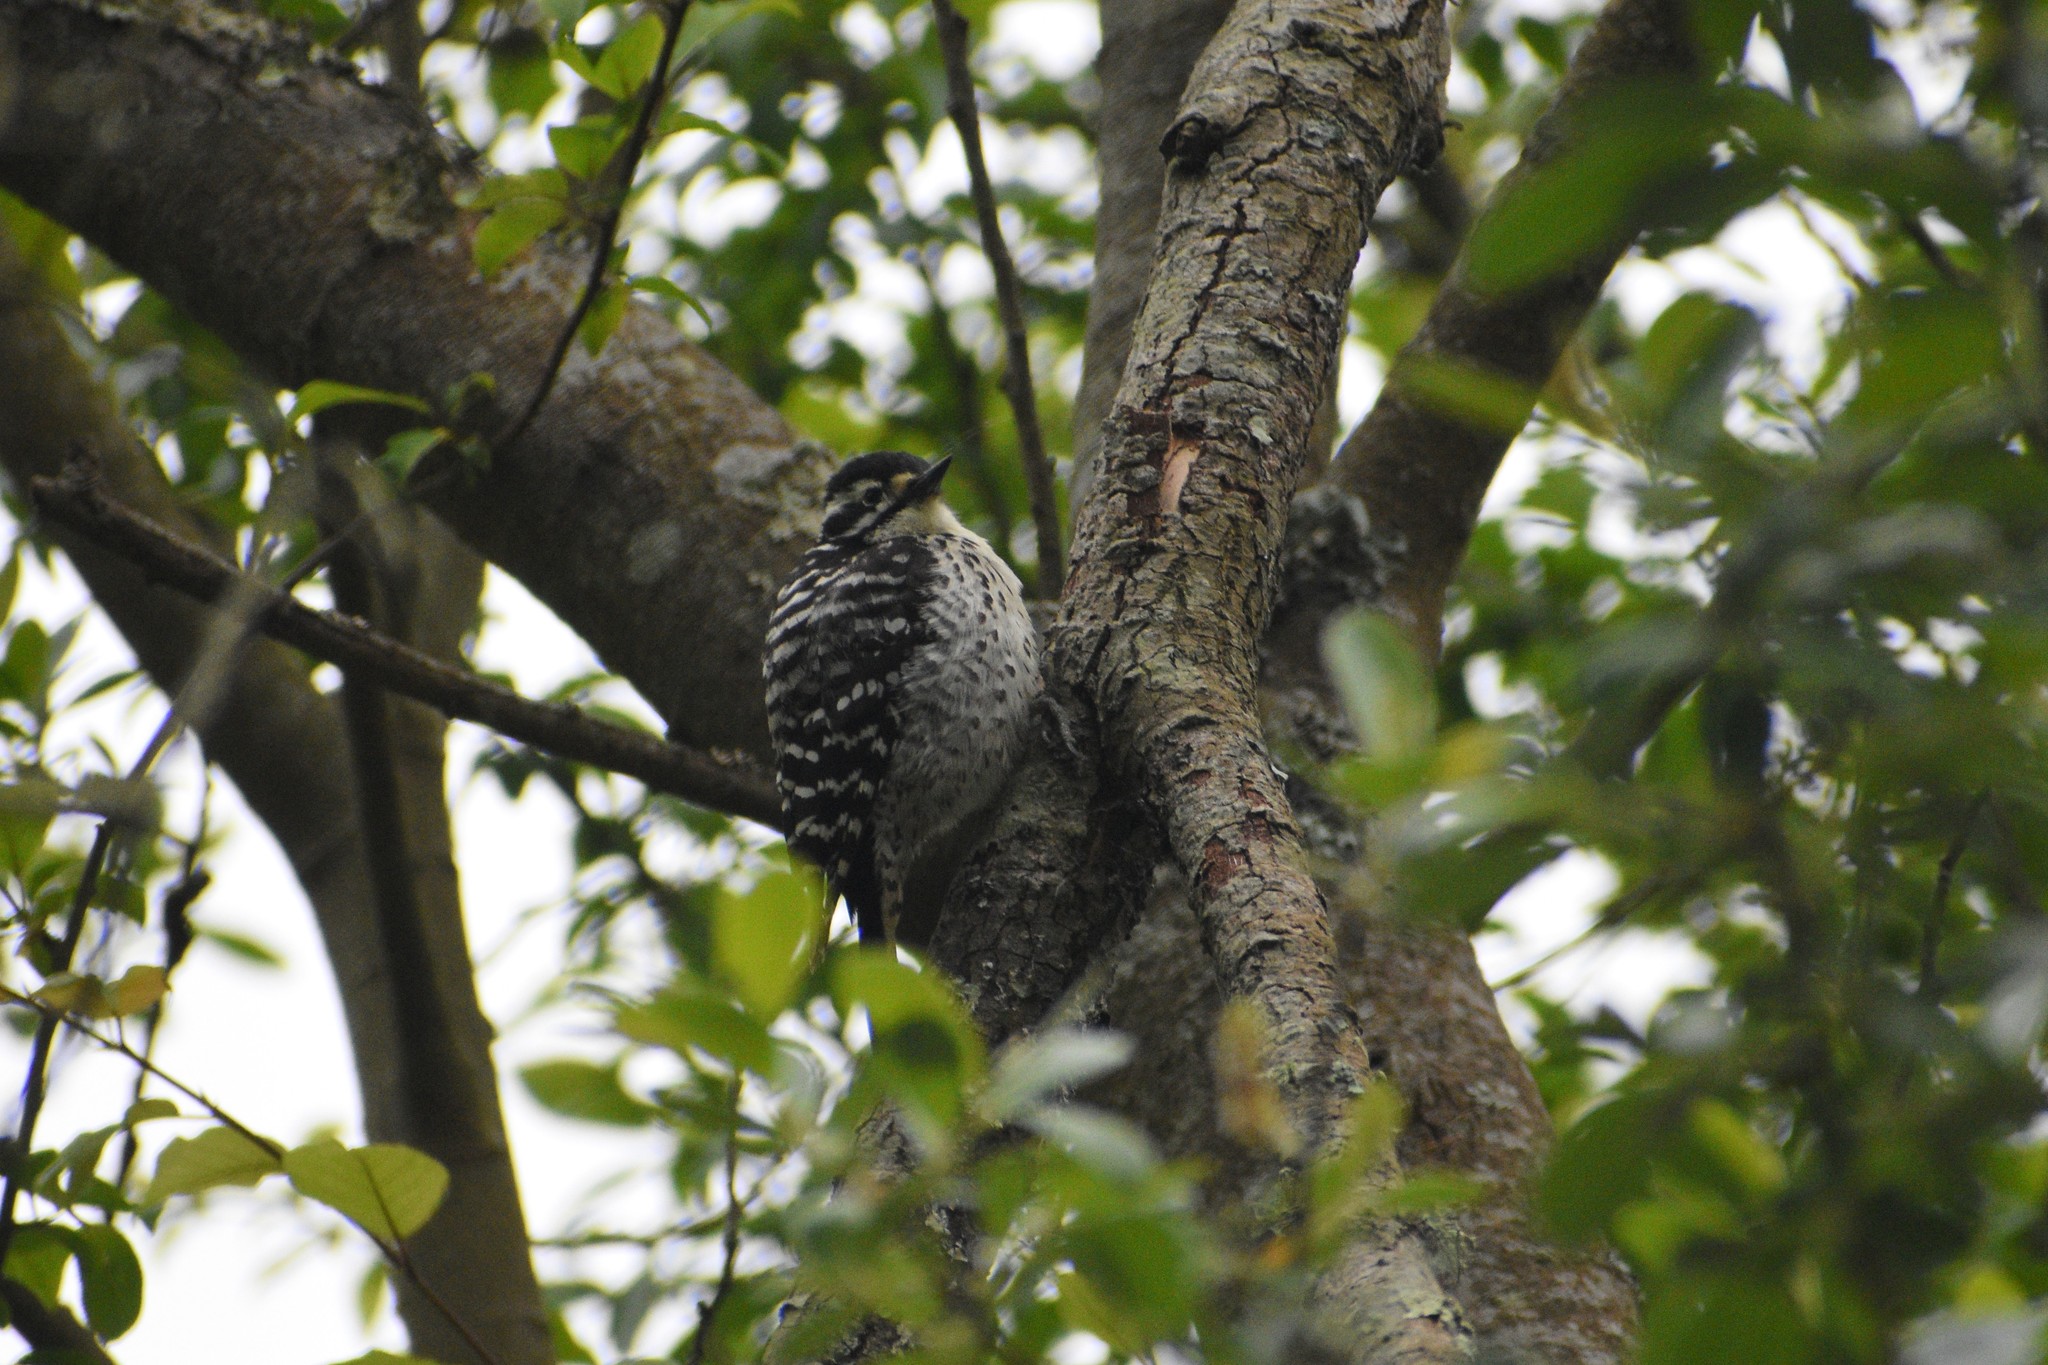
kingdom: Animalia
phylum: Chordata
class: Aves
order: Piciformes
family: Picidae
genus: Dryobates
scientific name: Dryobates nuttallii
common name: Nuttall's woodpecker
